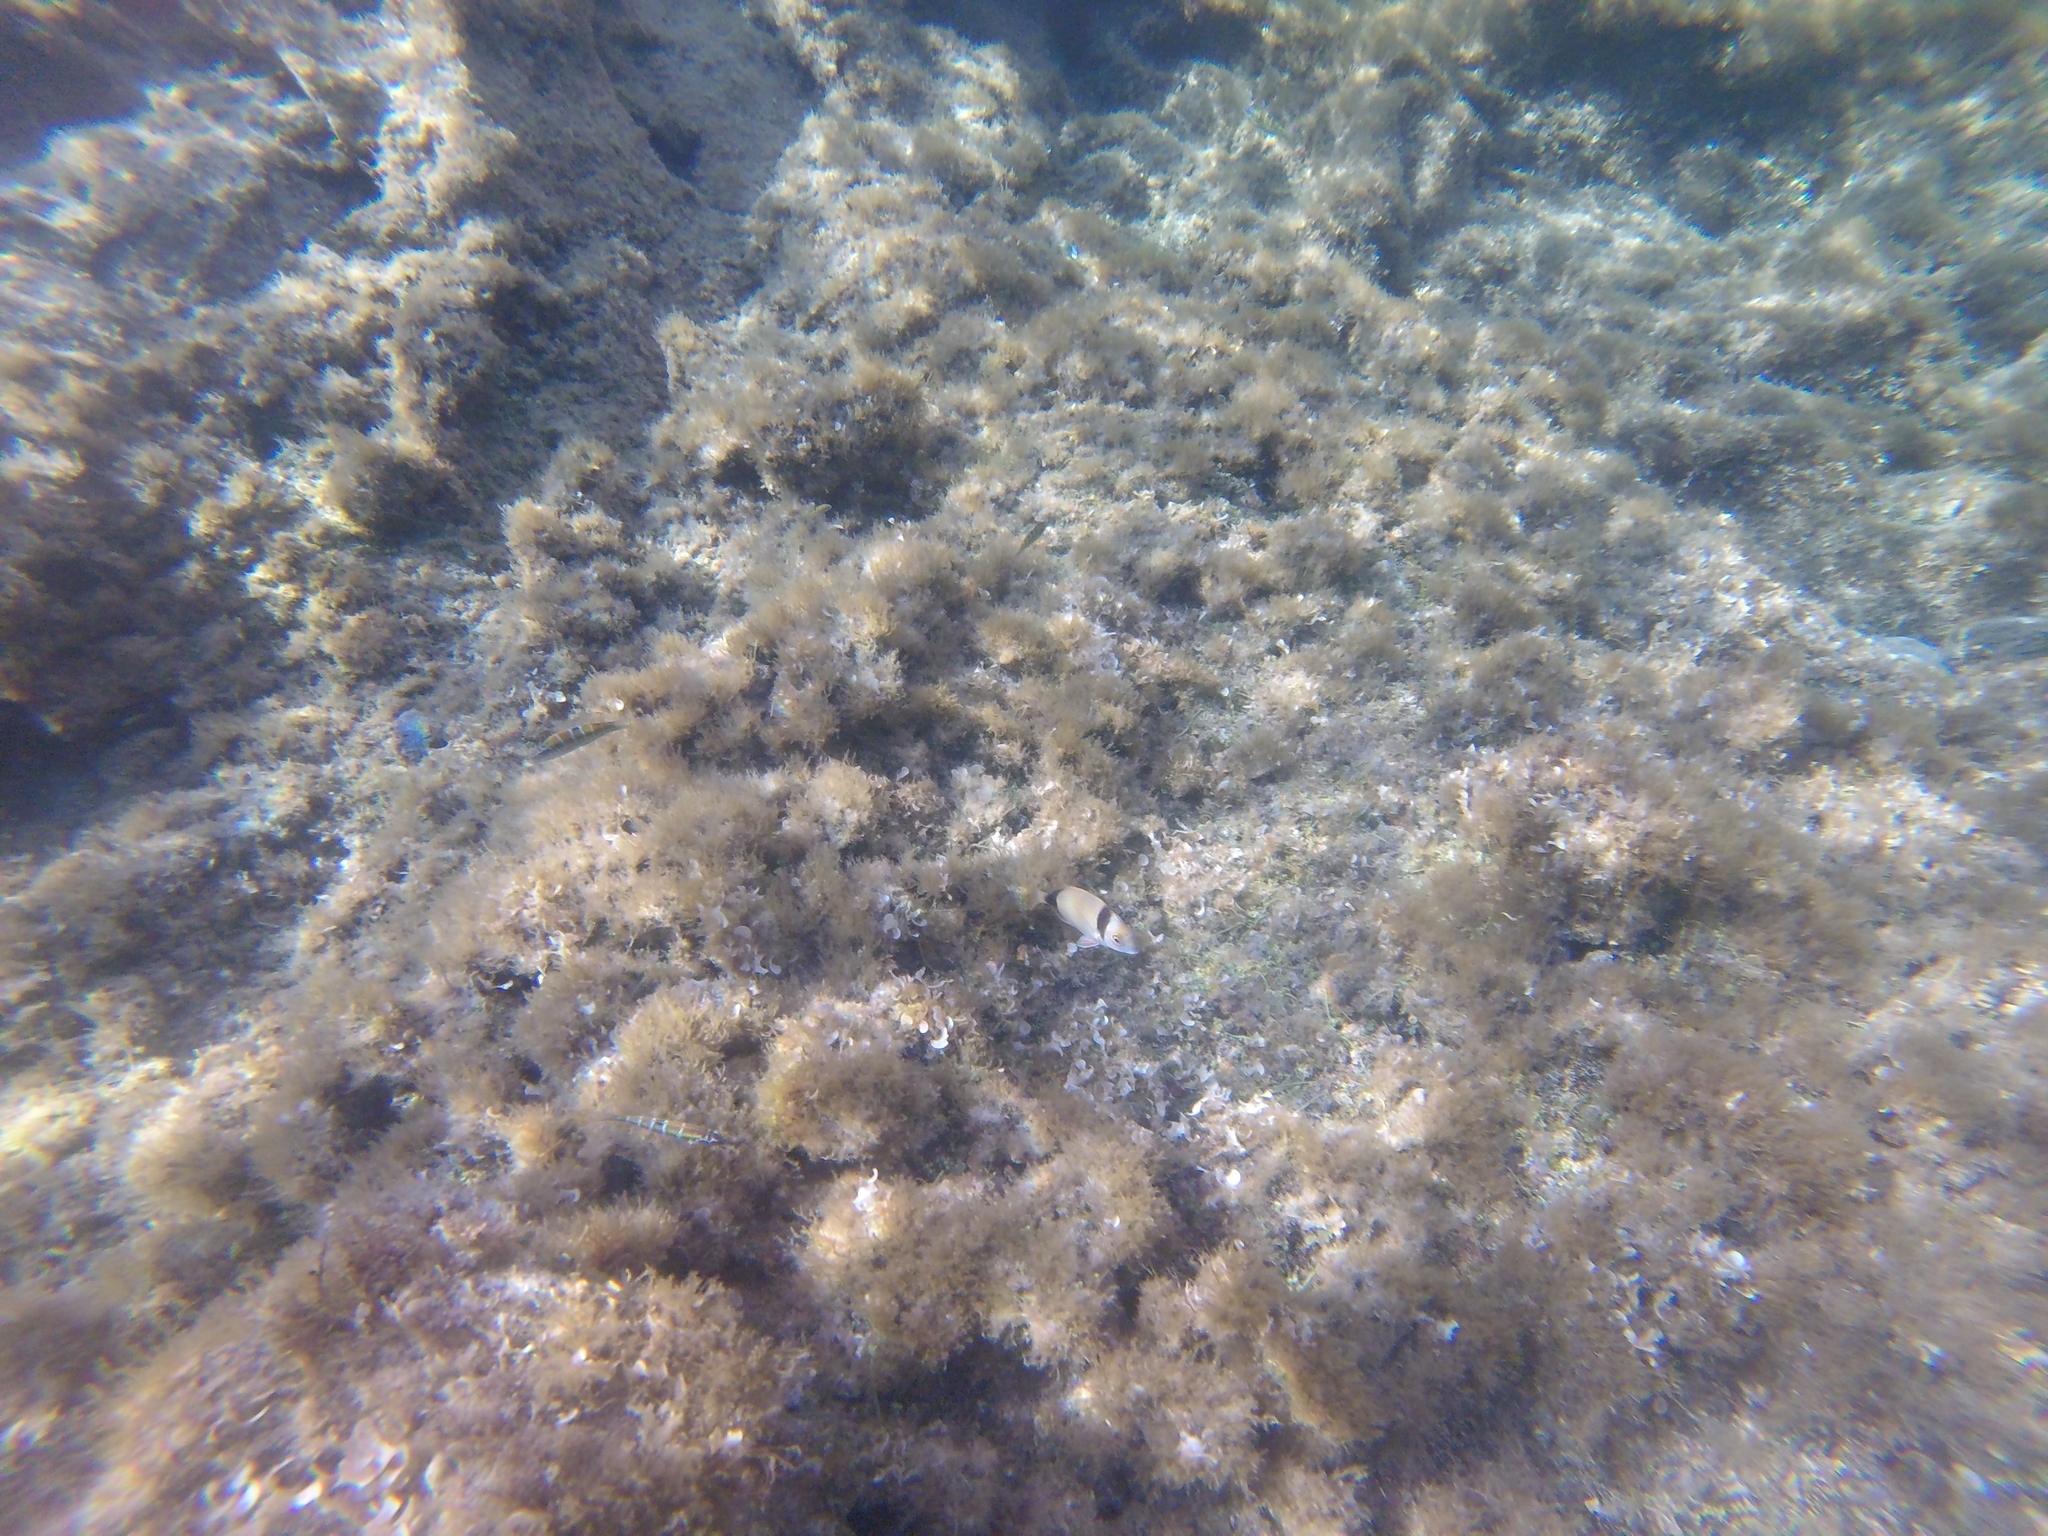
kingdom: Animalia
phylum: Chordata
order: Perciformes
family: Sparidae
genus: Diplodus
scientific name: Diplodus vulgaris
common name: Common two-banded seabream
